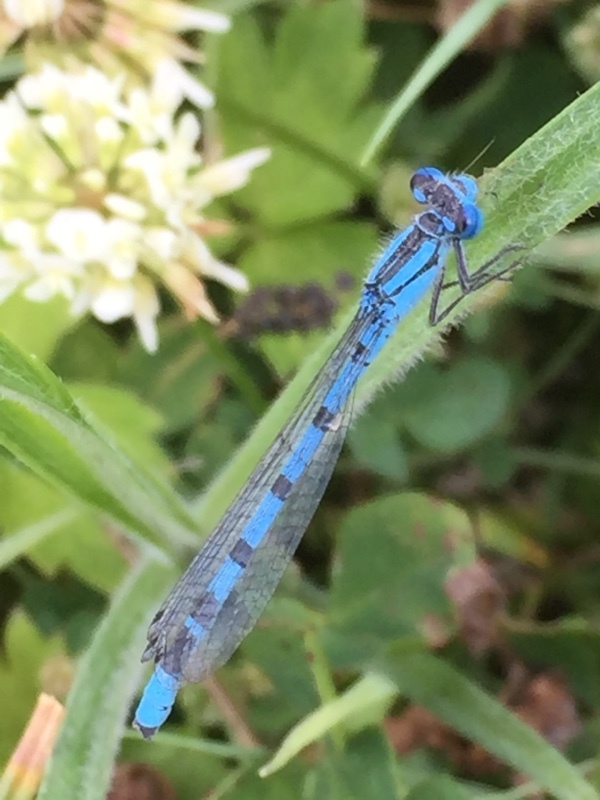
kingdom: Animalia
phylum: Arthropoda
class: Insecta
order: Odonata
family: Coenagrionidae
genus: Enallagma
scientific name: Enallagma cyathigerum
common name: Common blue damselfly
